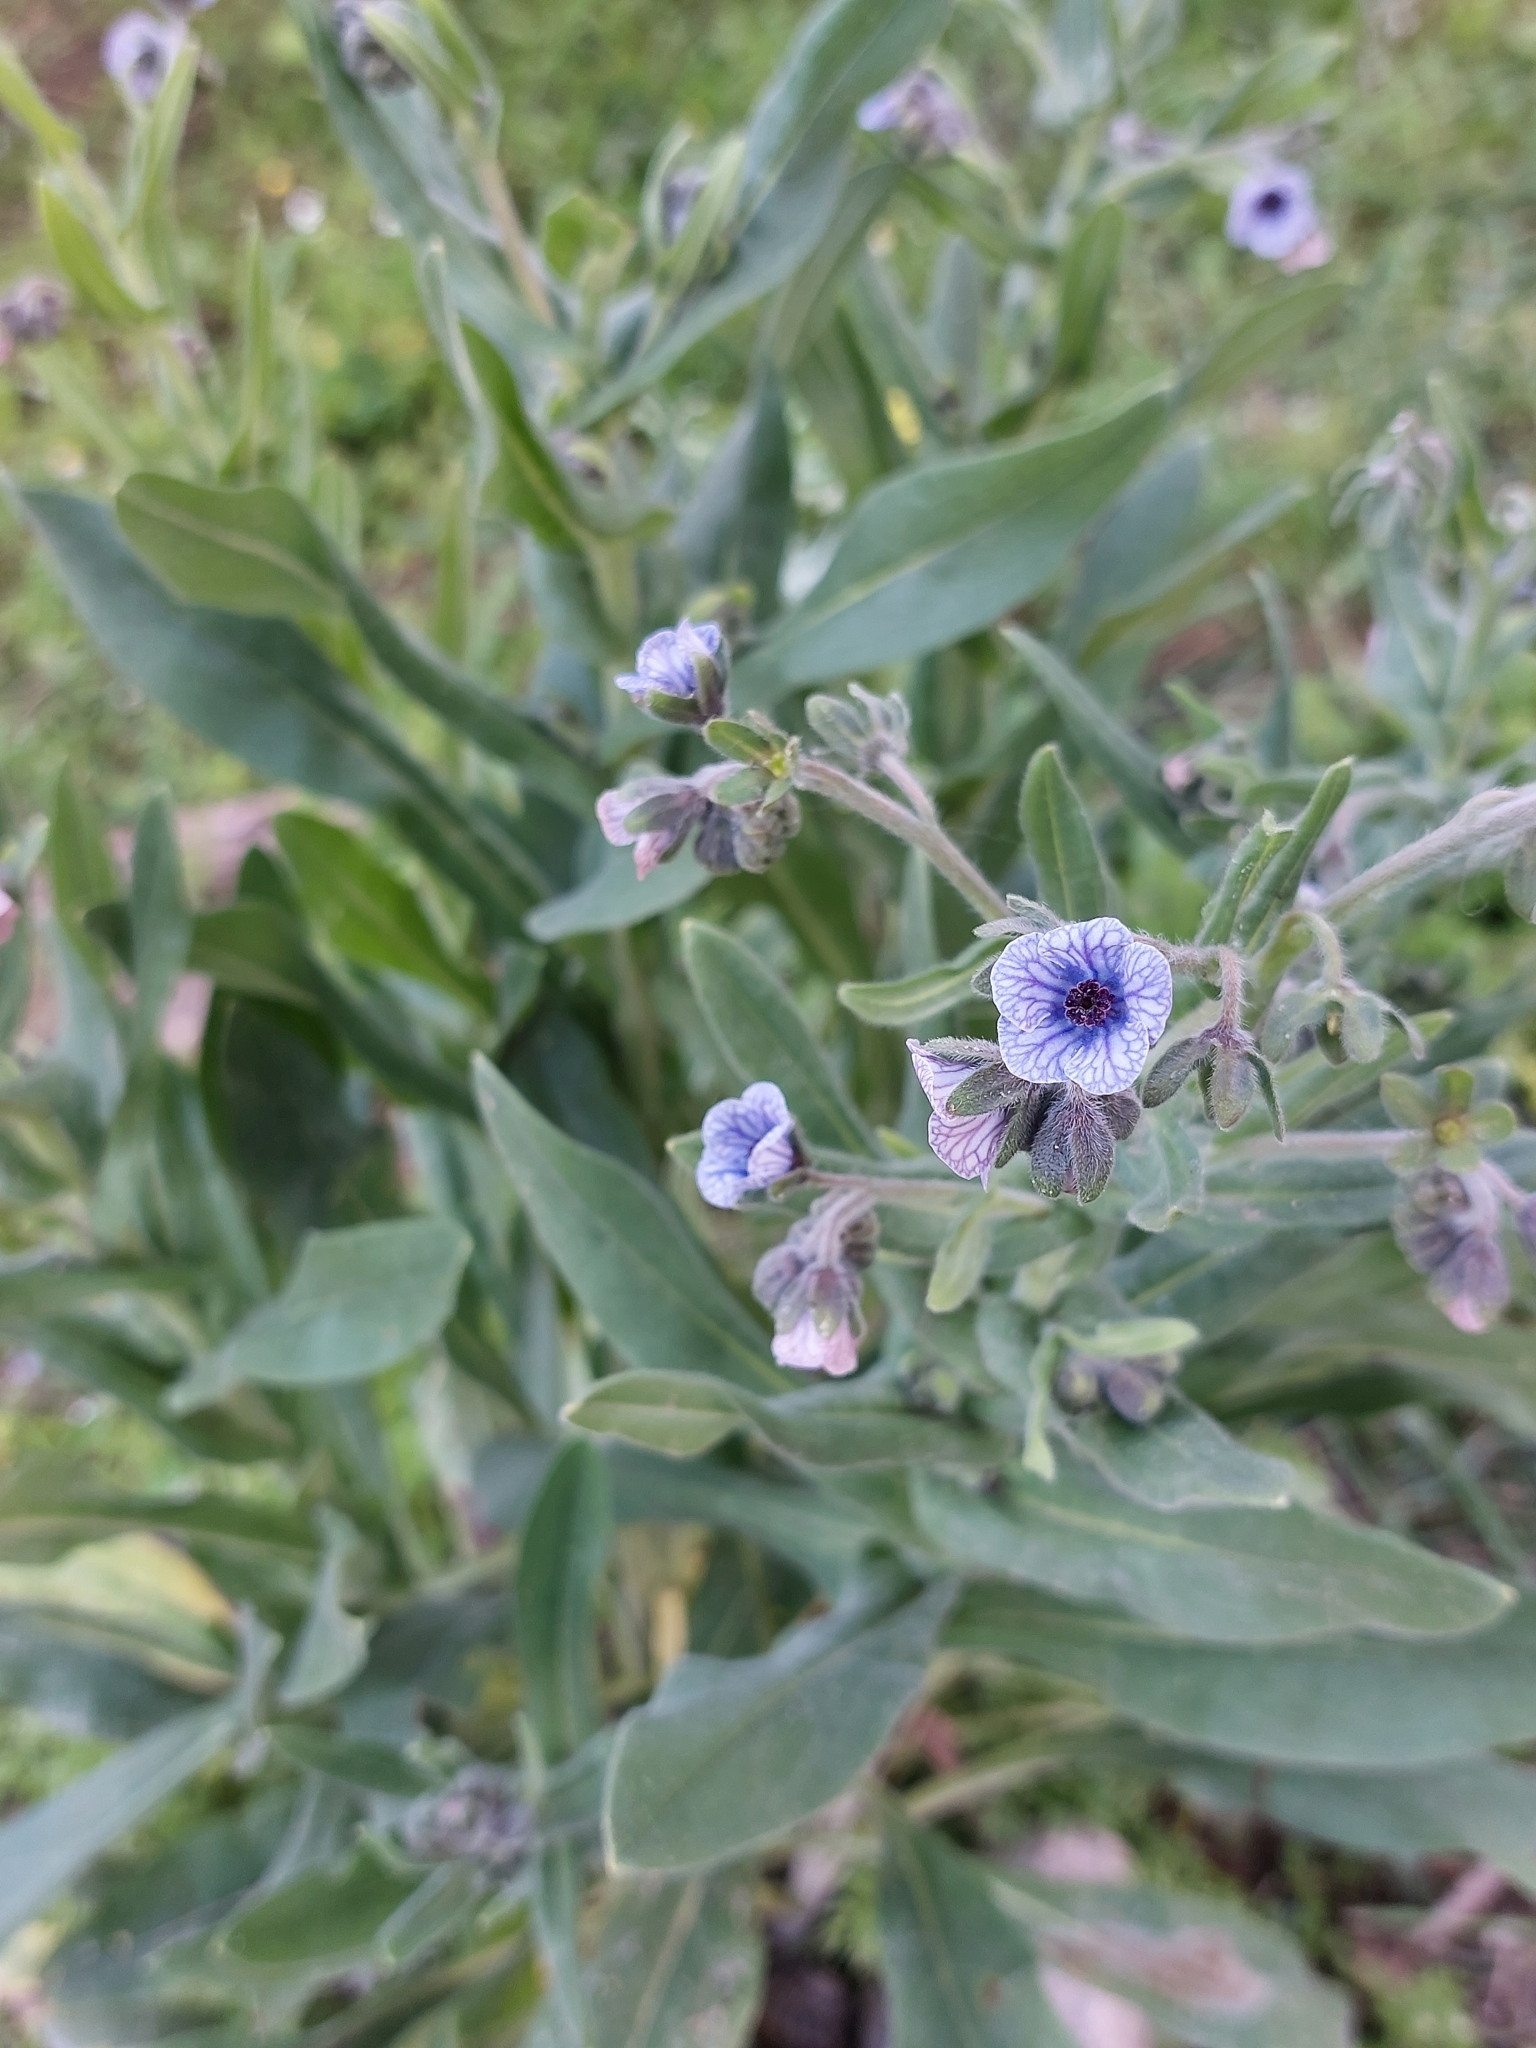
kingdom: Plantae
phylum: Tracheophyta
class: Magnoliopsida
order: Boraginales
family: Boraginaceae
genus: Cynoglossum
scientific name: Cynoglossum creticum
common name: Blue hound's tongue
